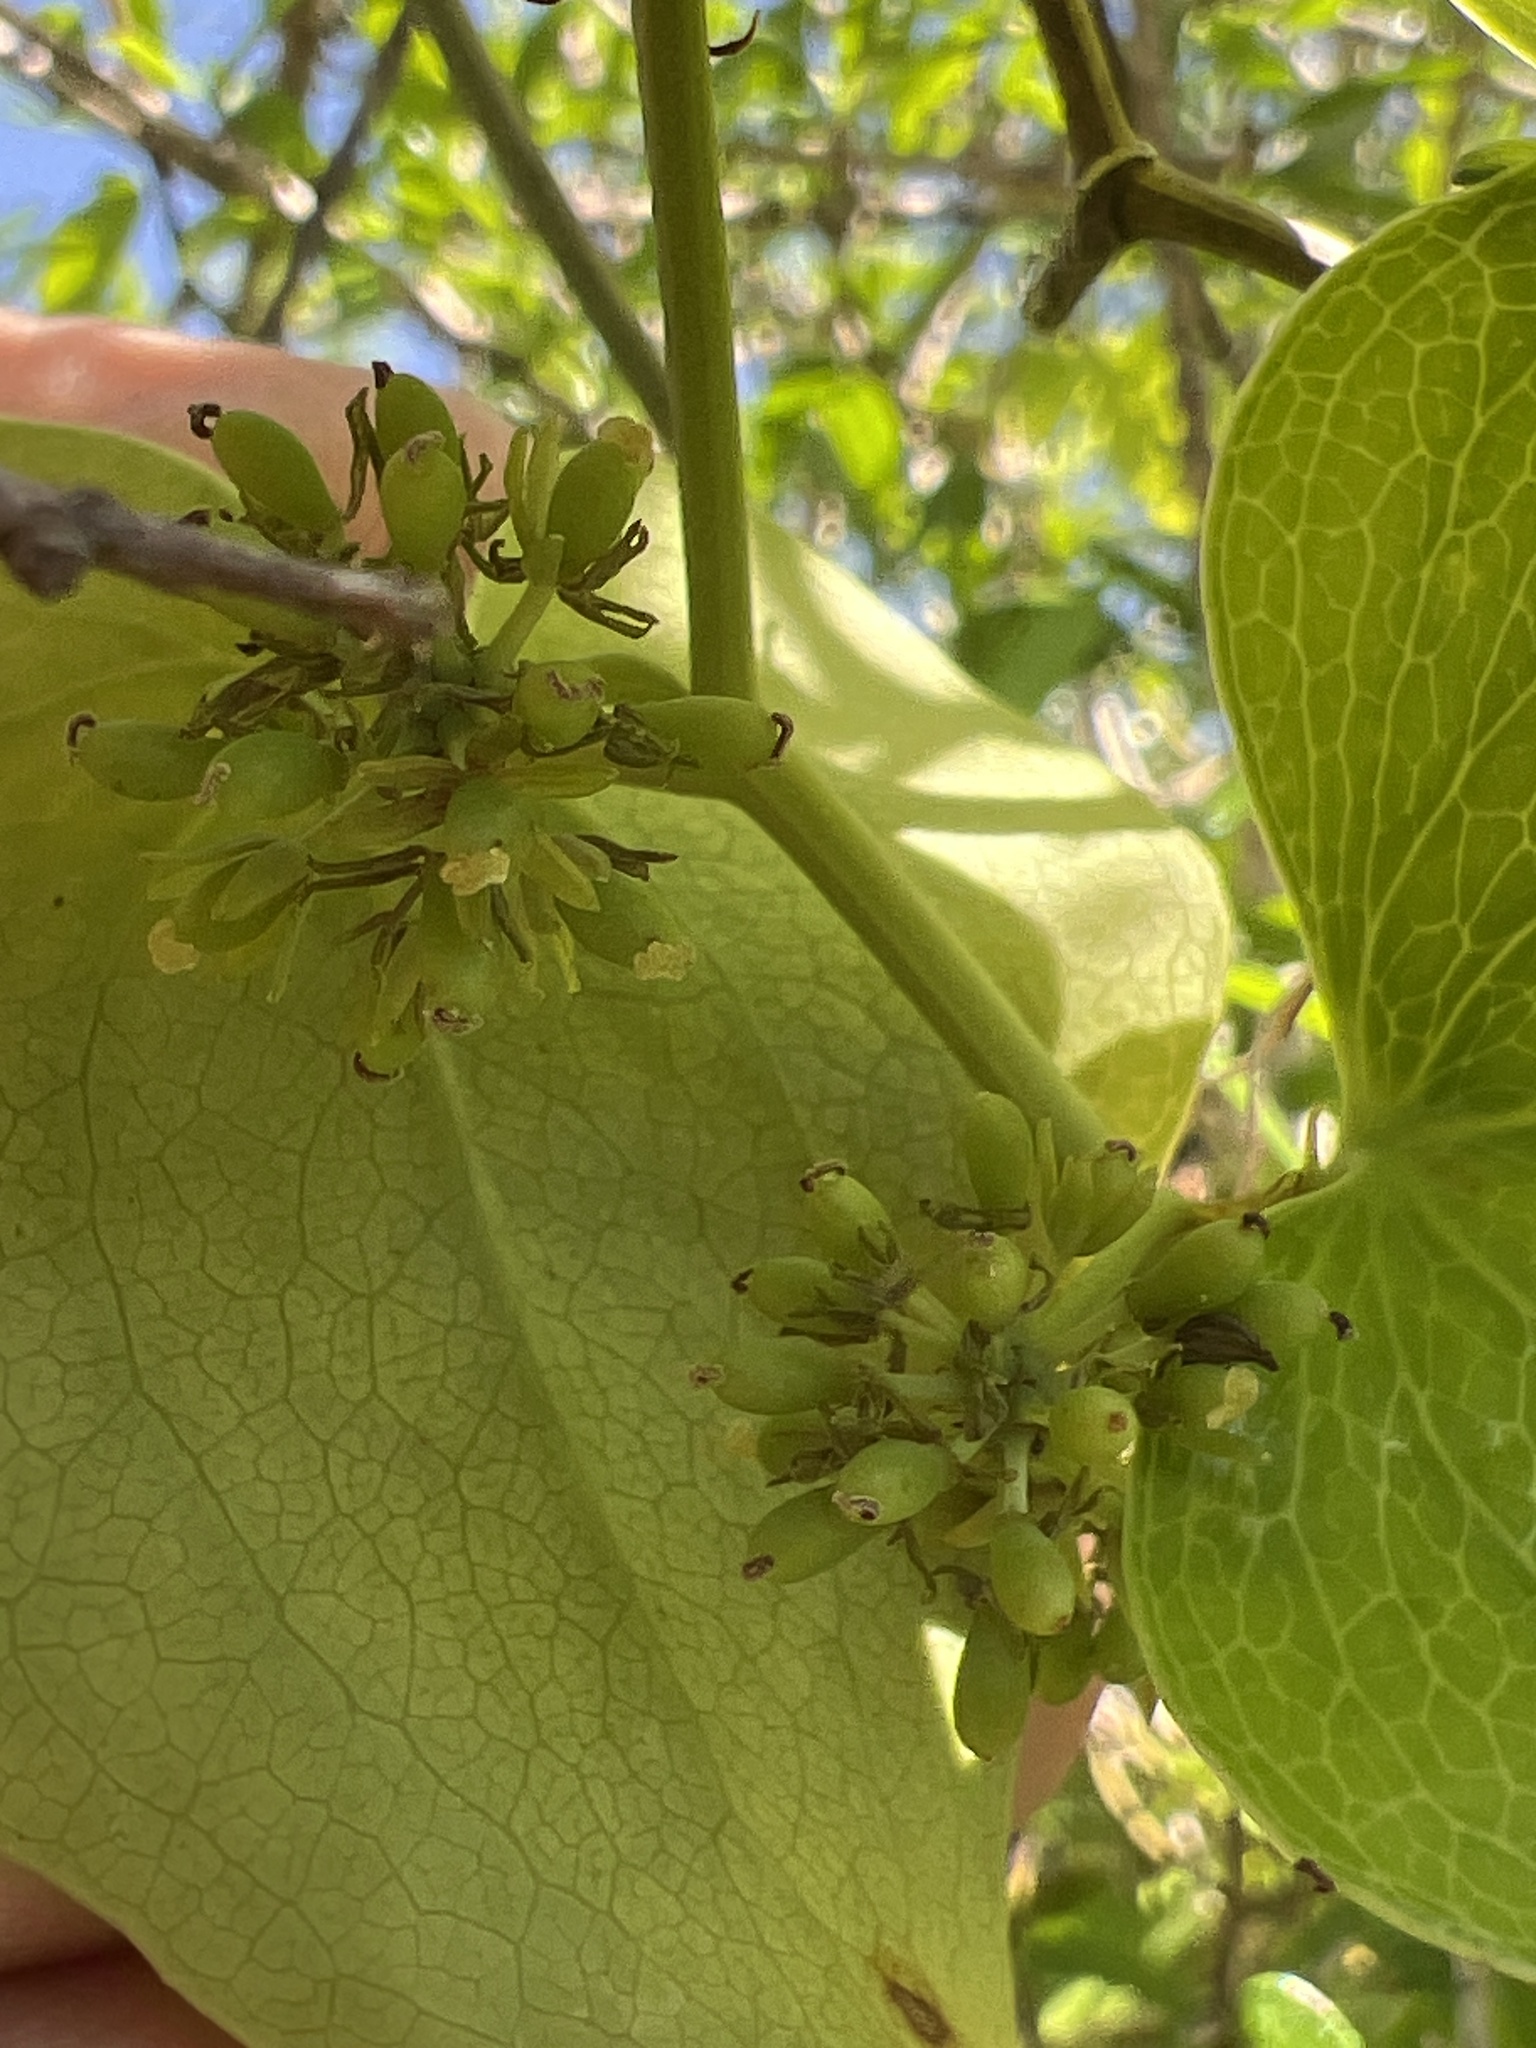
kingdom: Plantae
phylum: Tracheophyta
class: Liliopsida
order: Liliales
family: Smilacaceae
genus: Smilax
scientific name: Smilax bona-nox
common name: Catbrier
